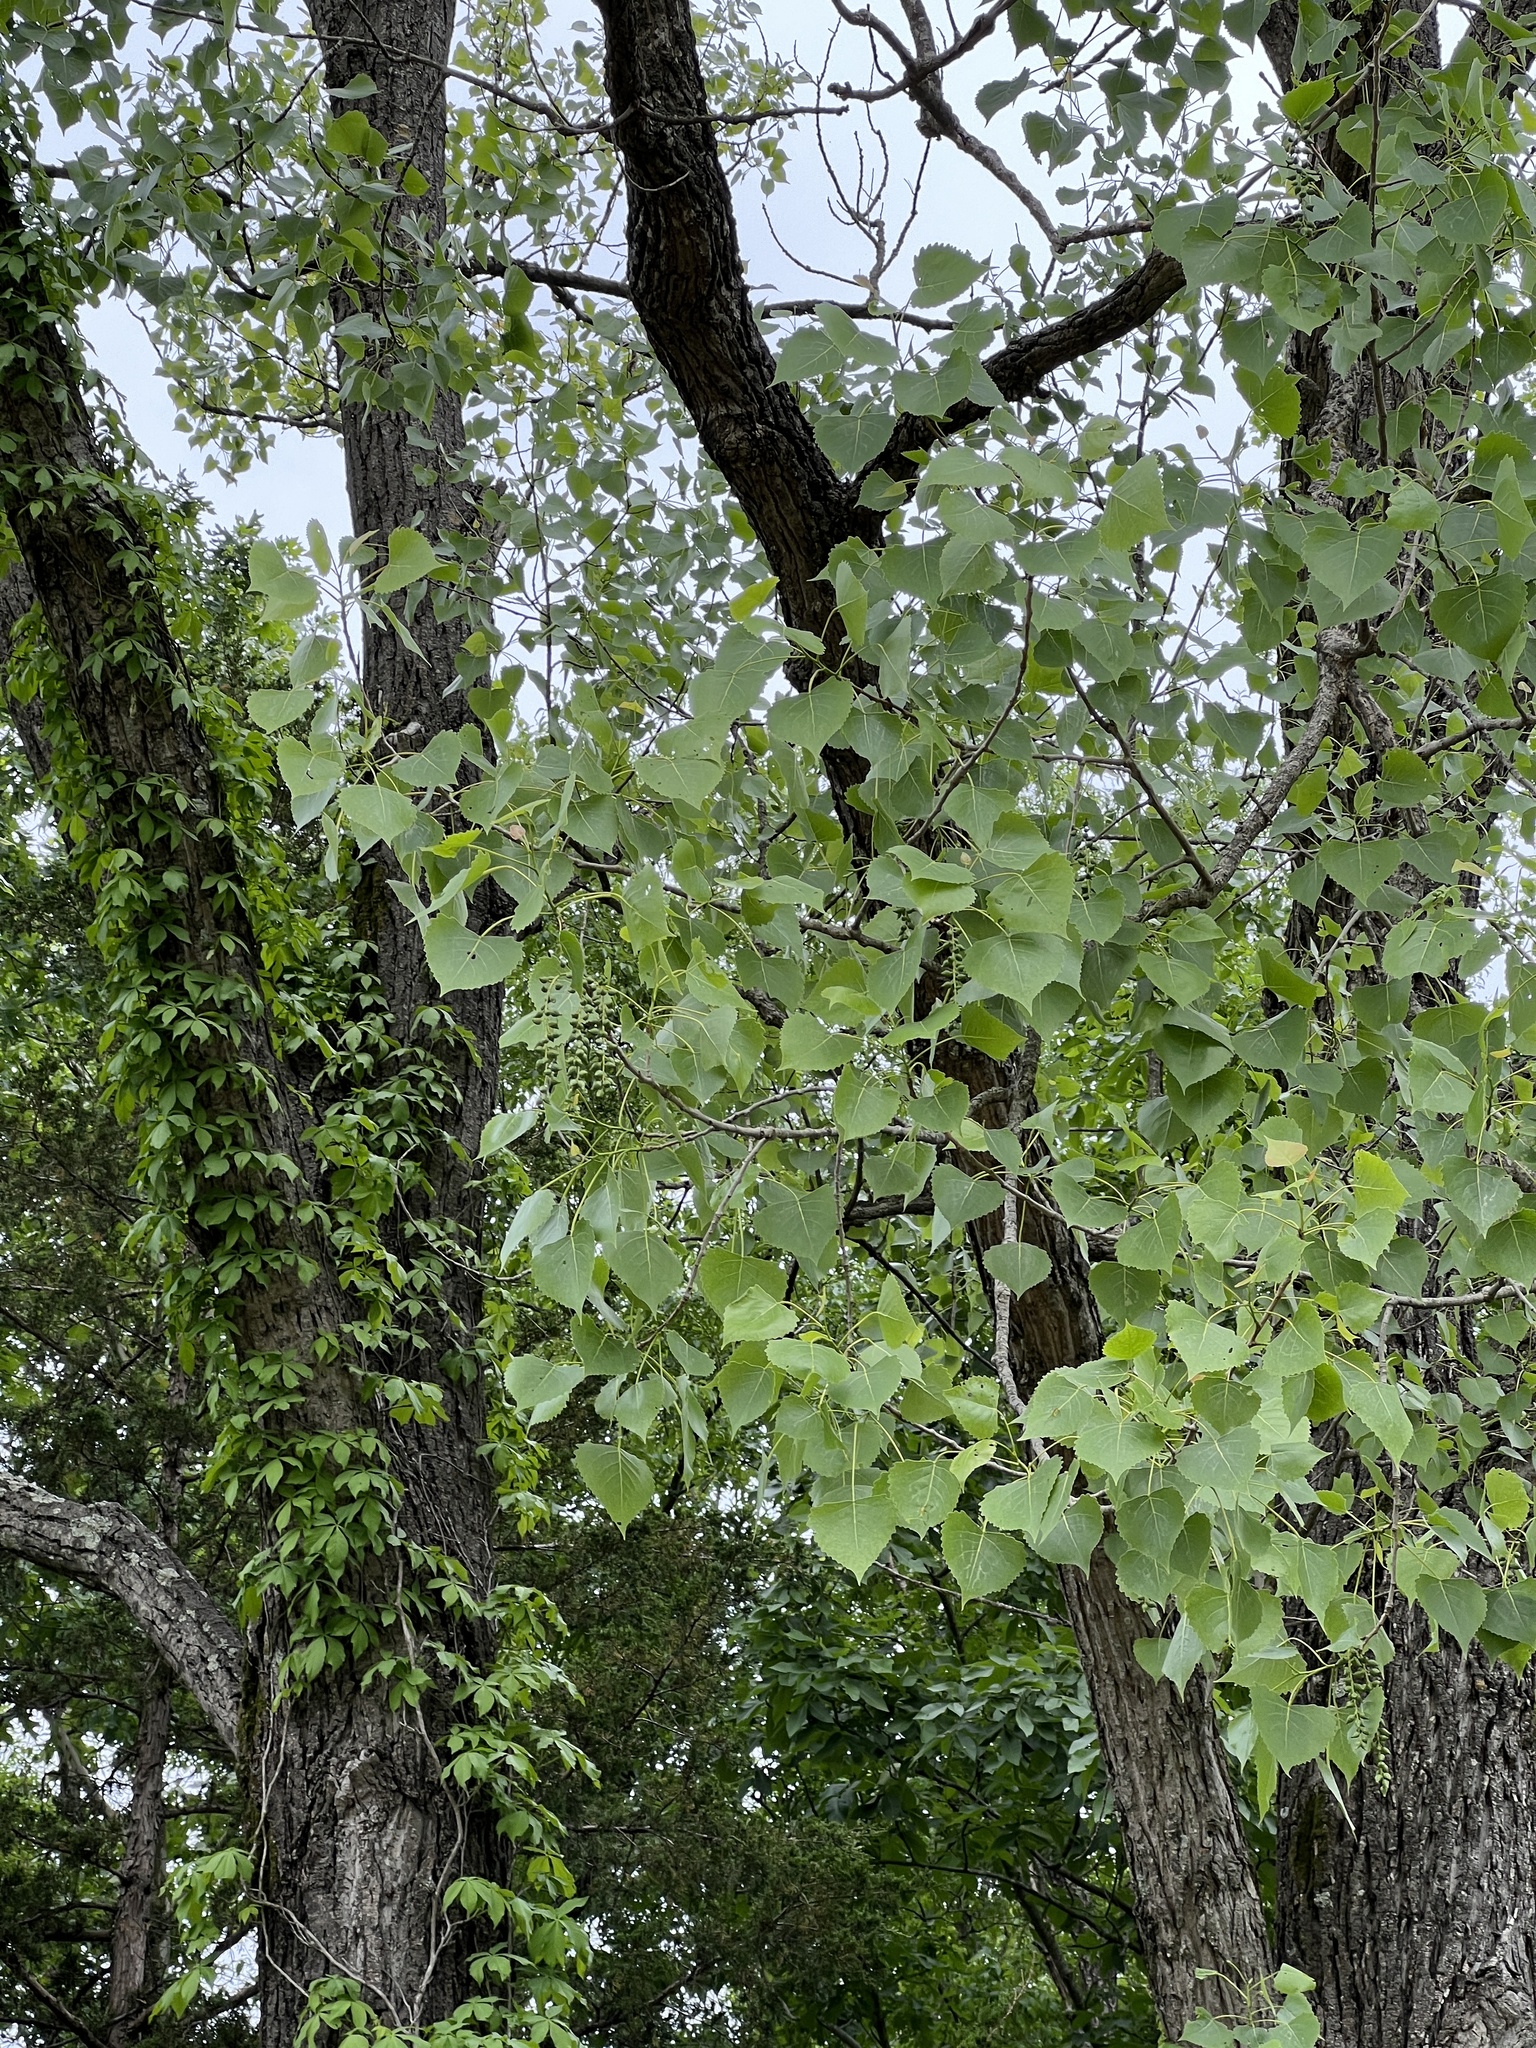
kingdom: Plantae
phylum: Tracheophyta
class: Magnoliopsida
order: Malpighiales
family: Salicaceae
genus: Populus
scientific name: Populus deltoides
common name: Eastern cottonwood
